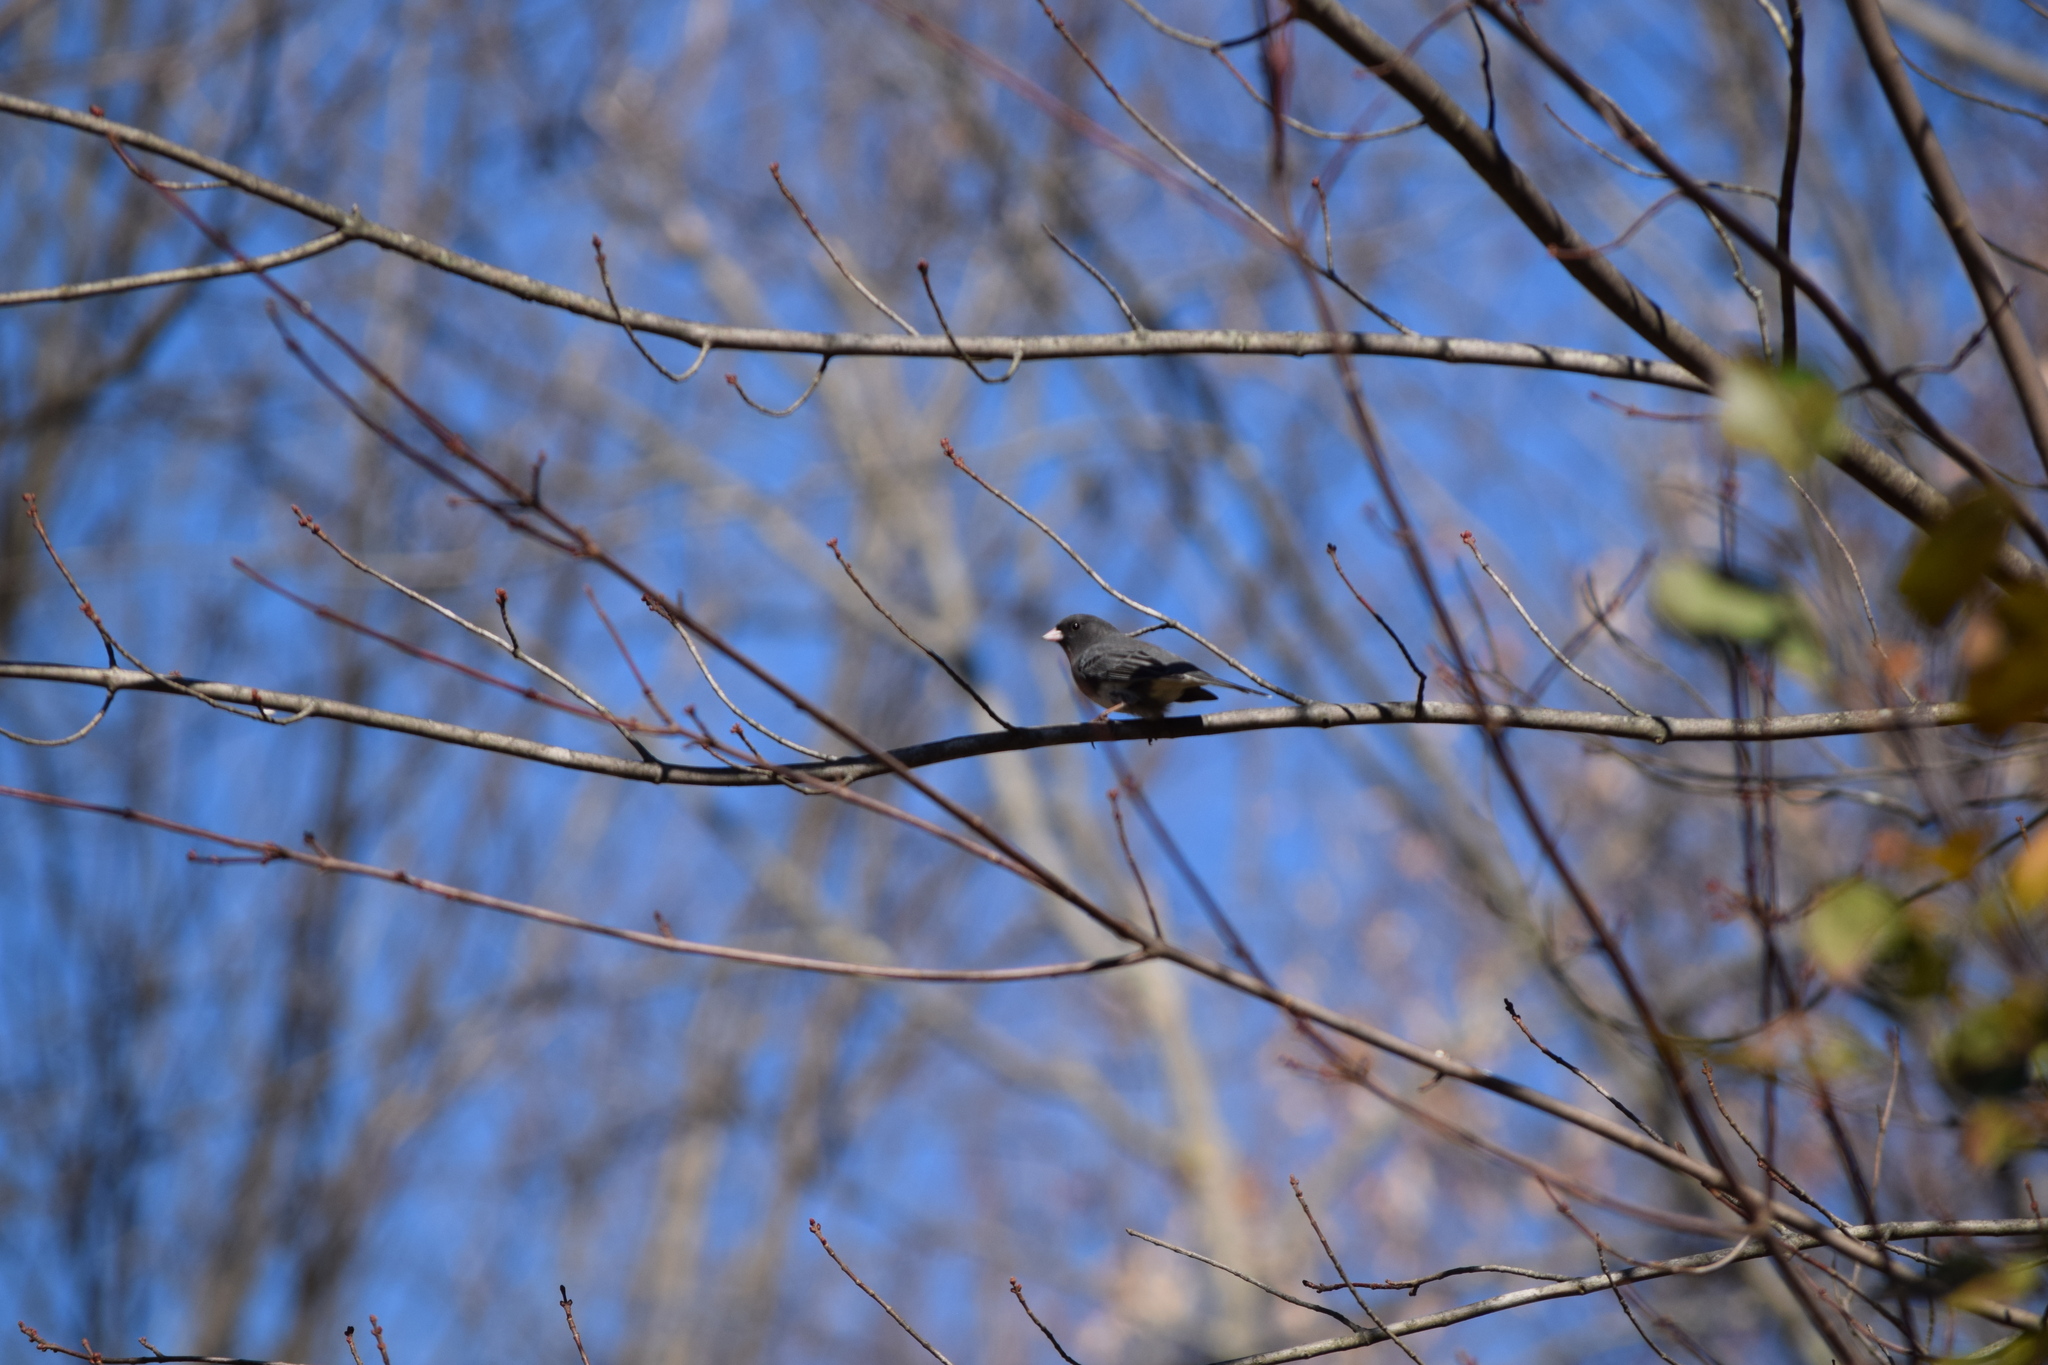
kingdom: Animalia
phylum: Chordata
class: Aves
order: Passeriformes
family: Passerellidae
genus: Junco
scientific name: Junco hyemalis
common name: Dark-eyed junco
